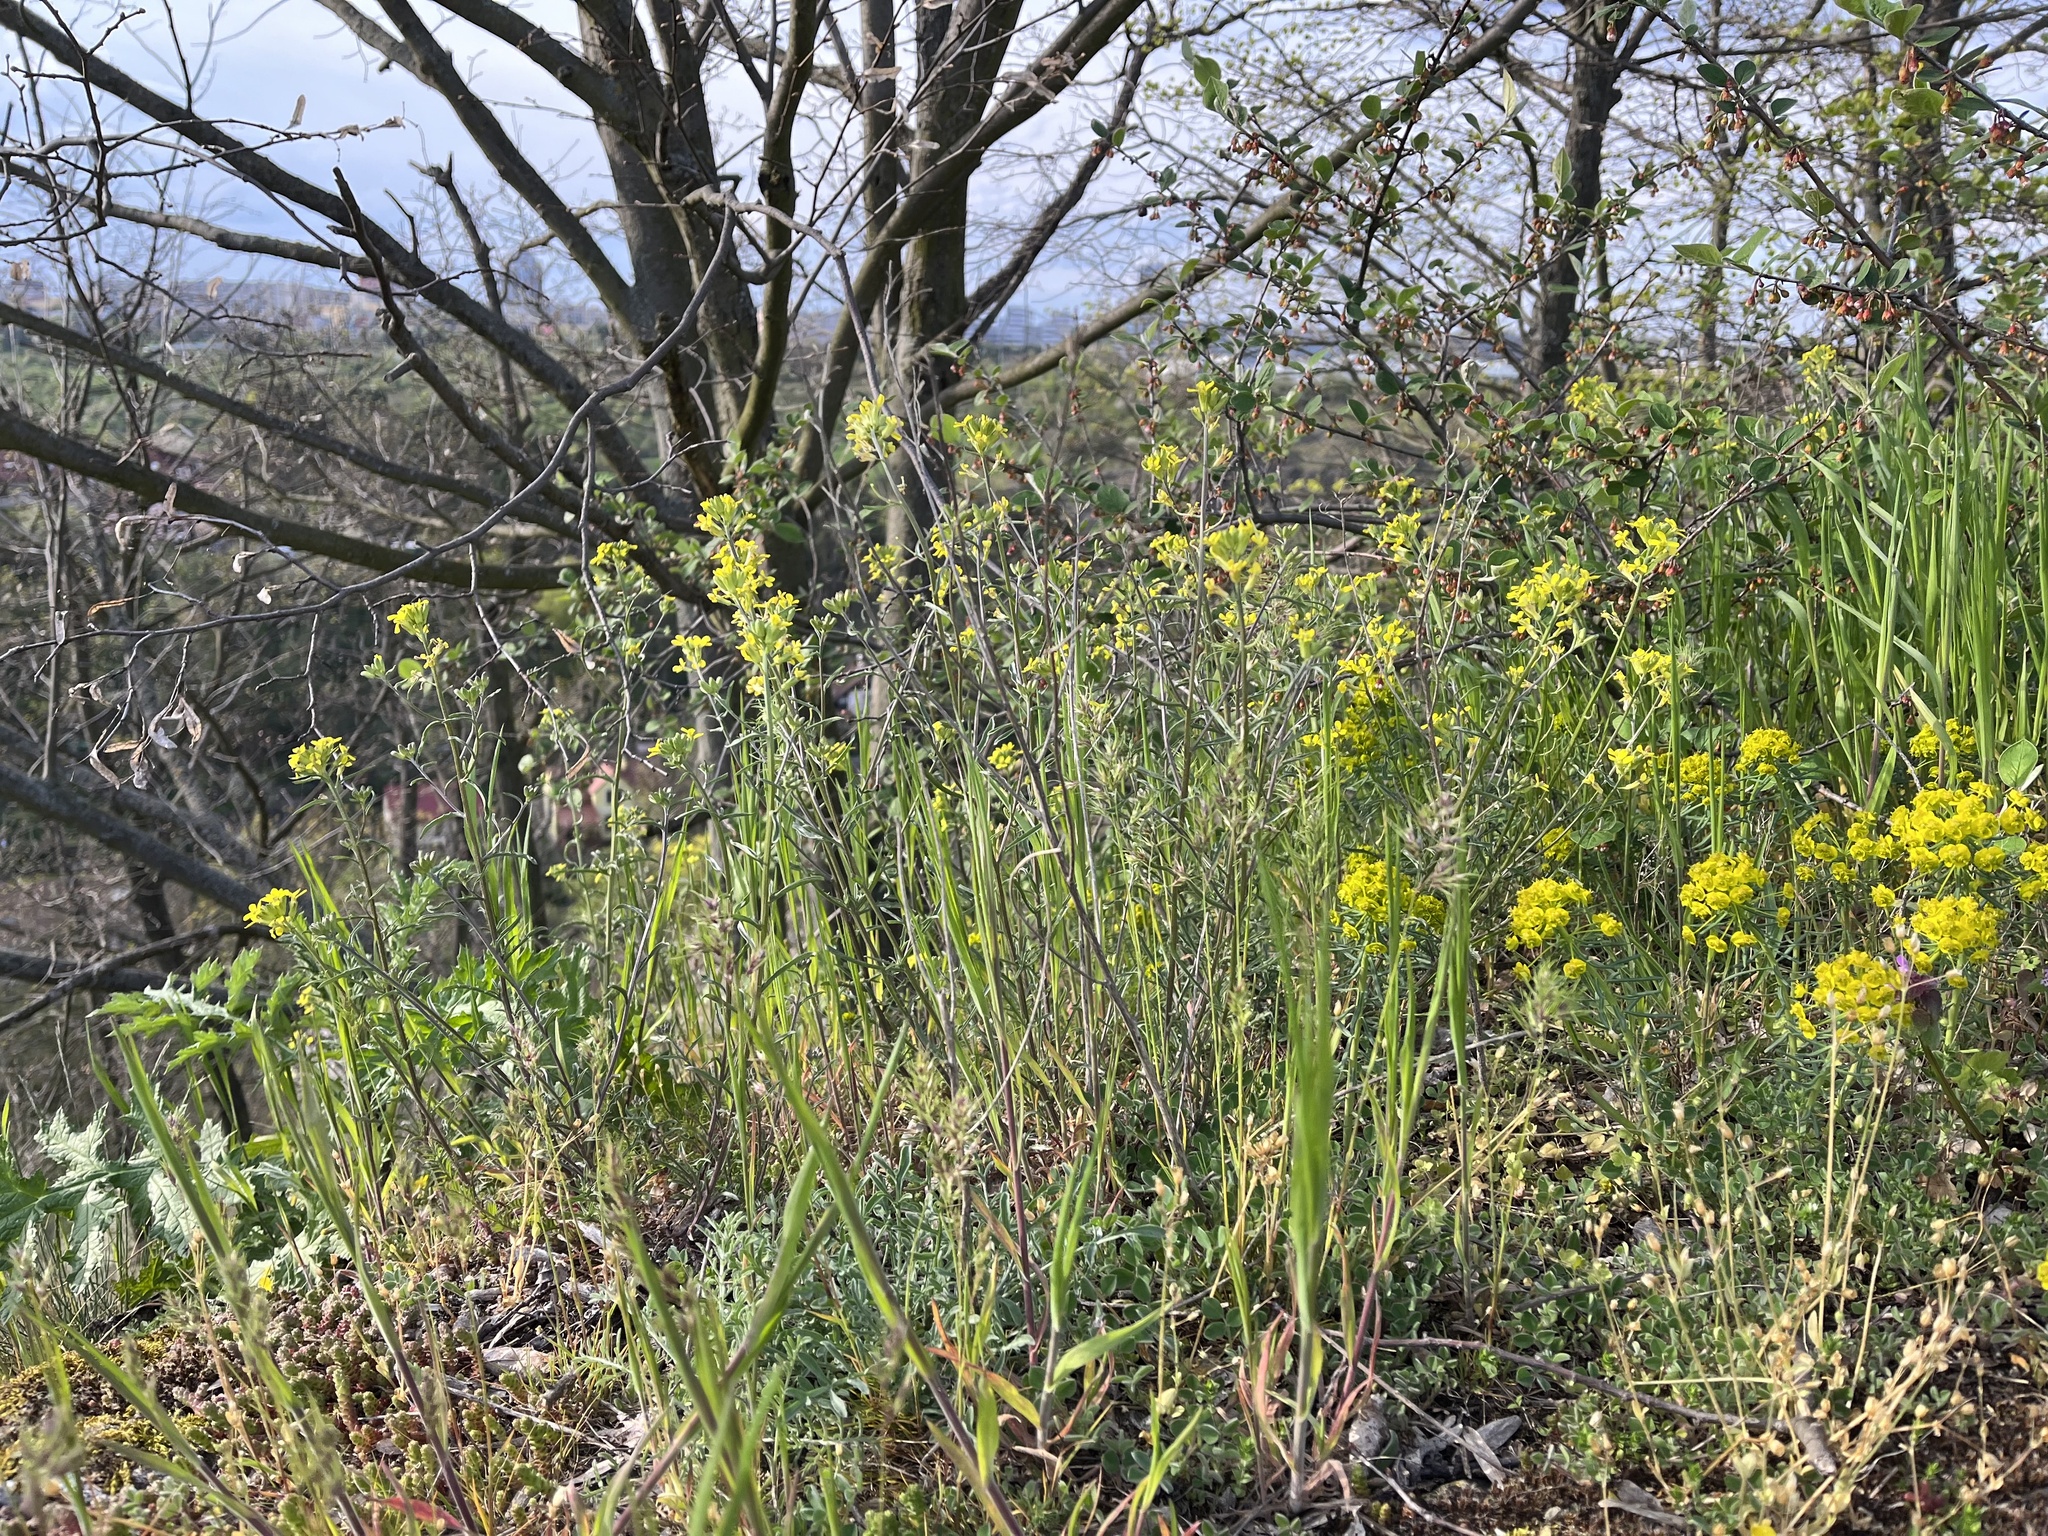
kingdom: Plantae
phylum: Tracheophyta
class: Magnoliopsida
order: Brassicales
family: Brassicaceae
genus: Erysimum
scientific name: Erysimum crepidifolium
